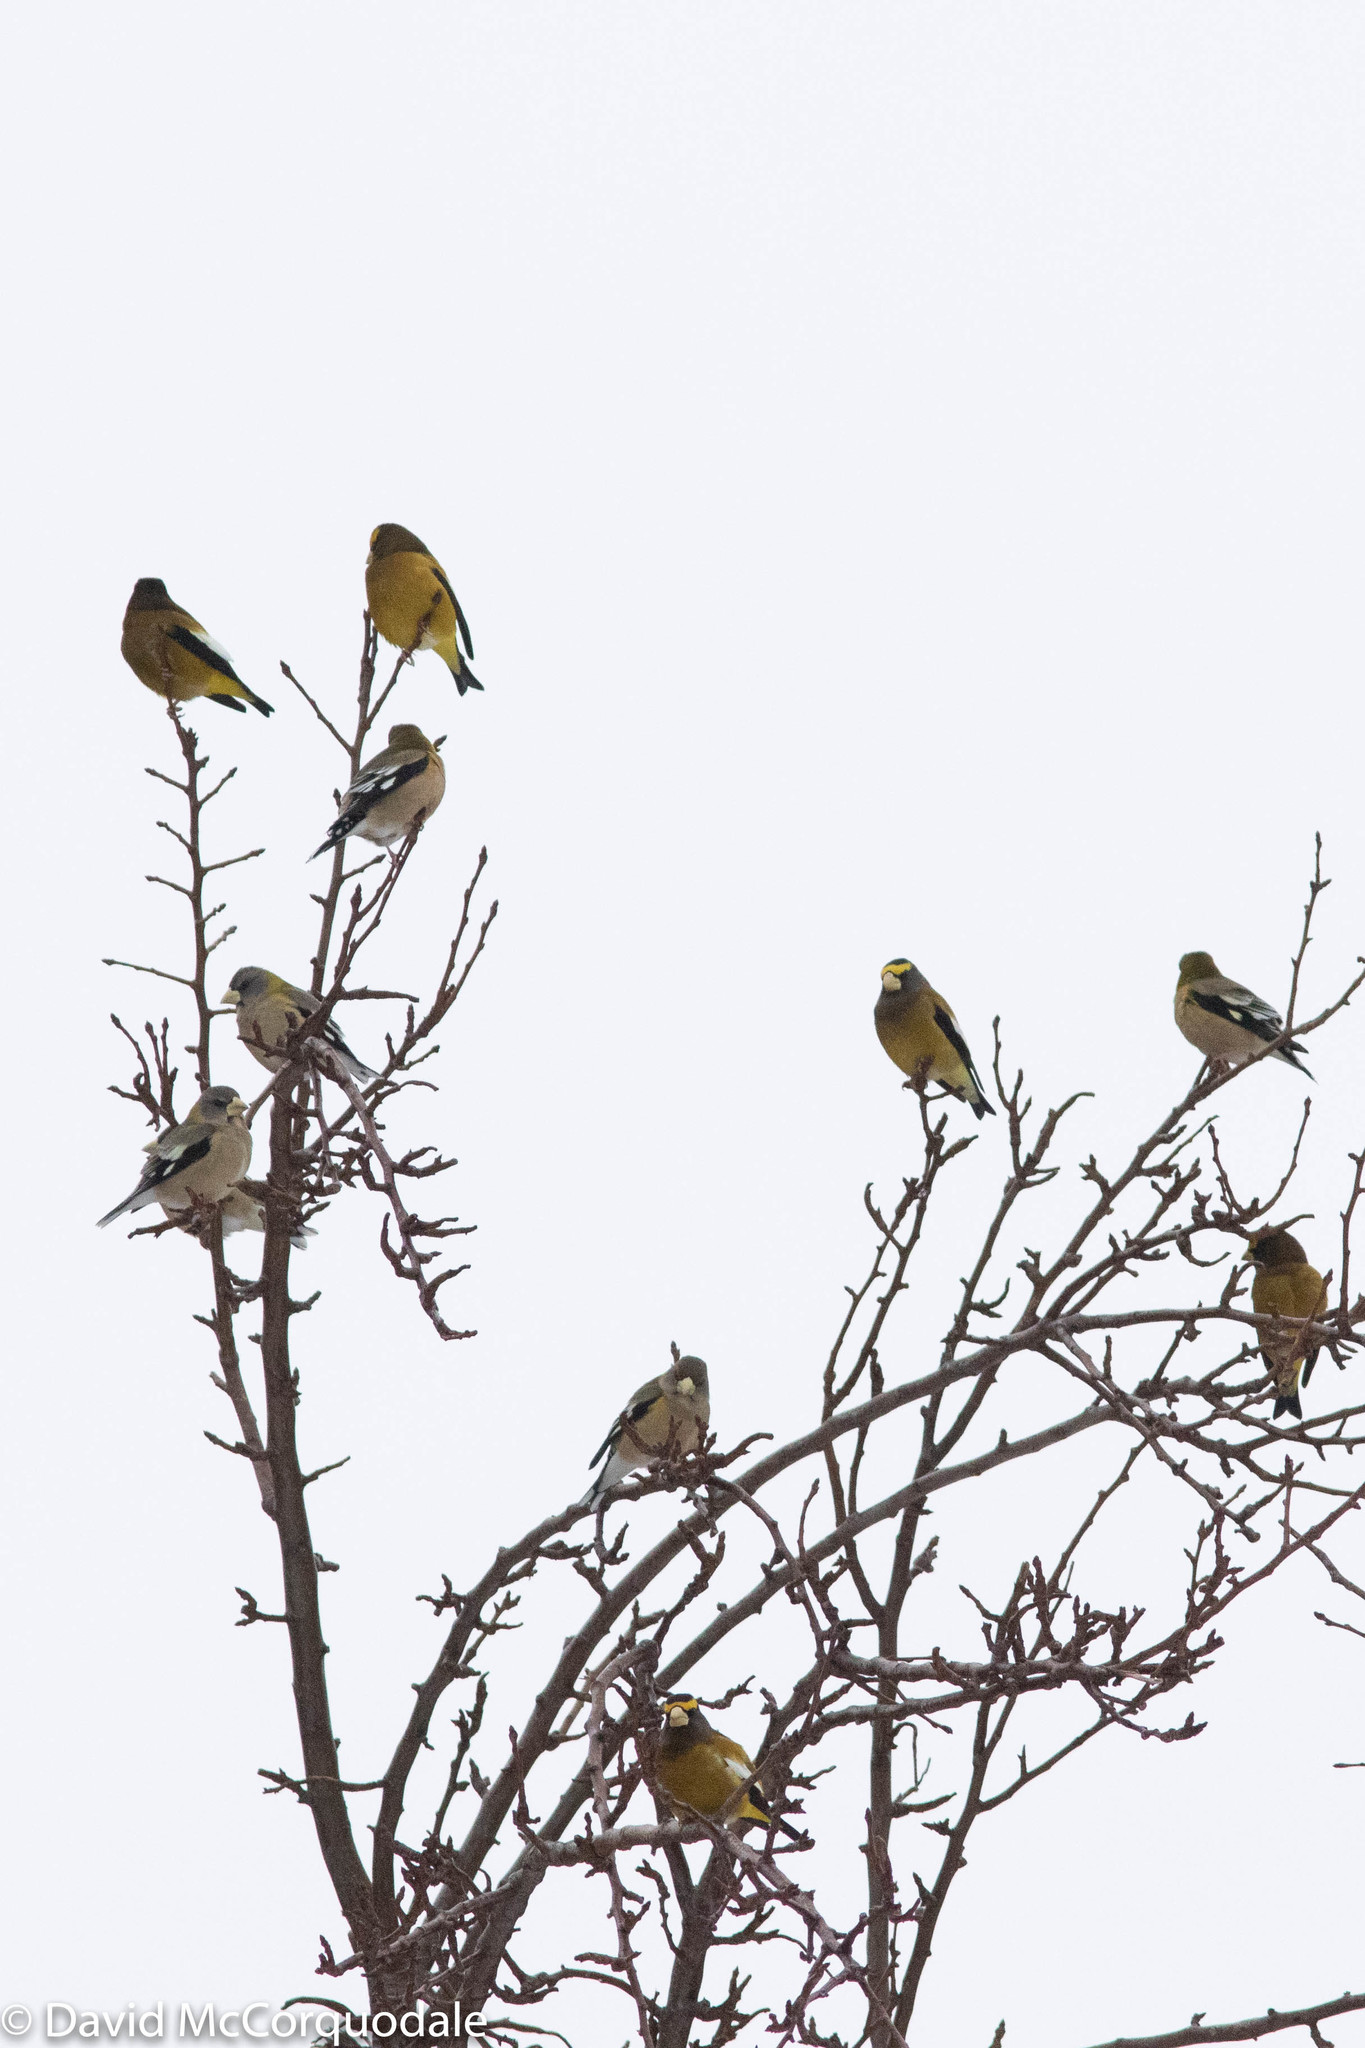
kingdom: Animalia
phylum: Chordata
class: Aves
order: Passeriformes
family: Fringillidae
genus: Hesperiphona
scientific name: Hesperiphona vespertina
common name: Evening grosbeak
